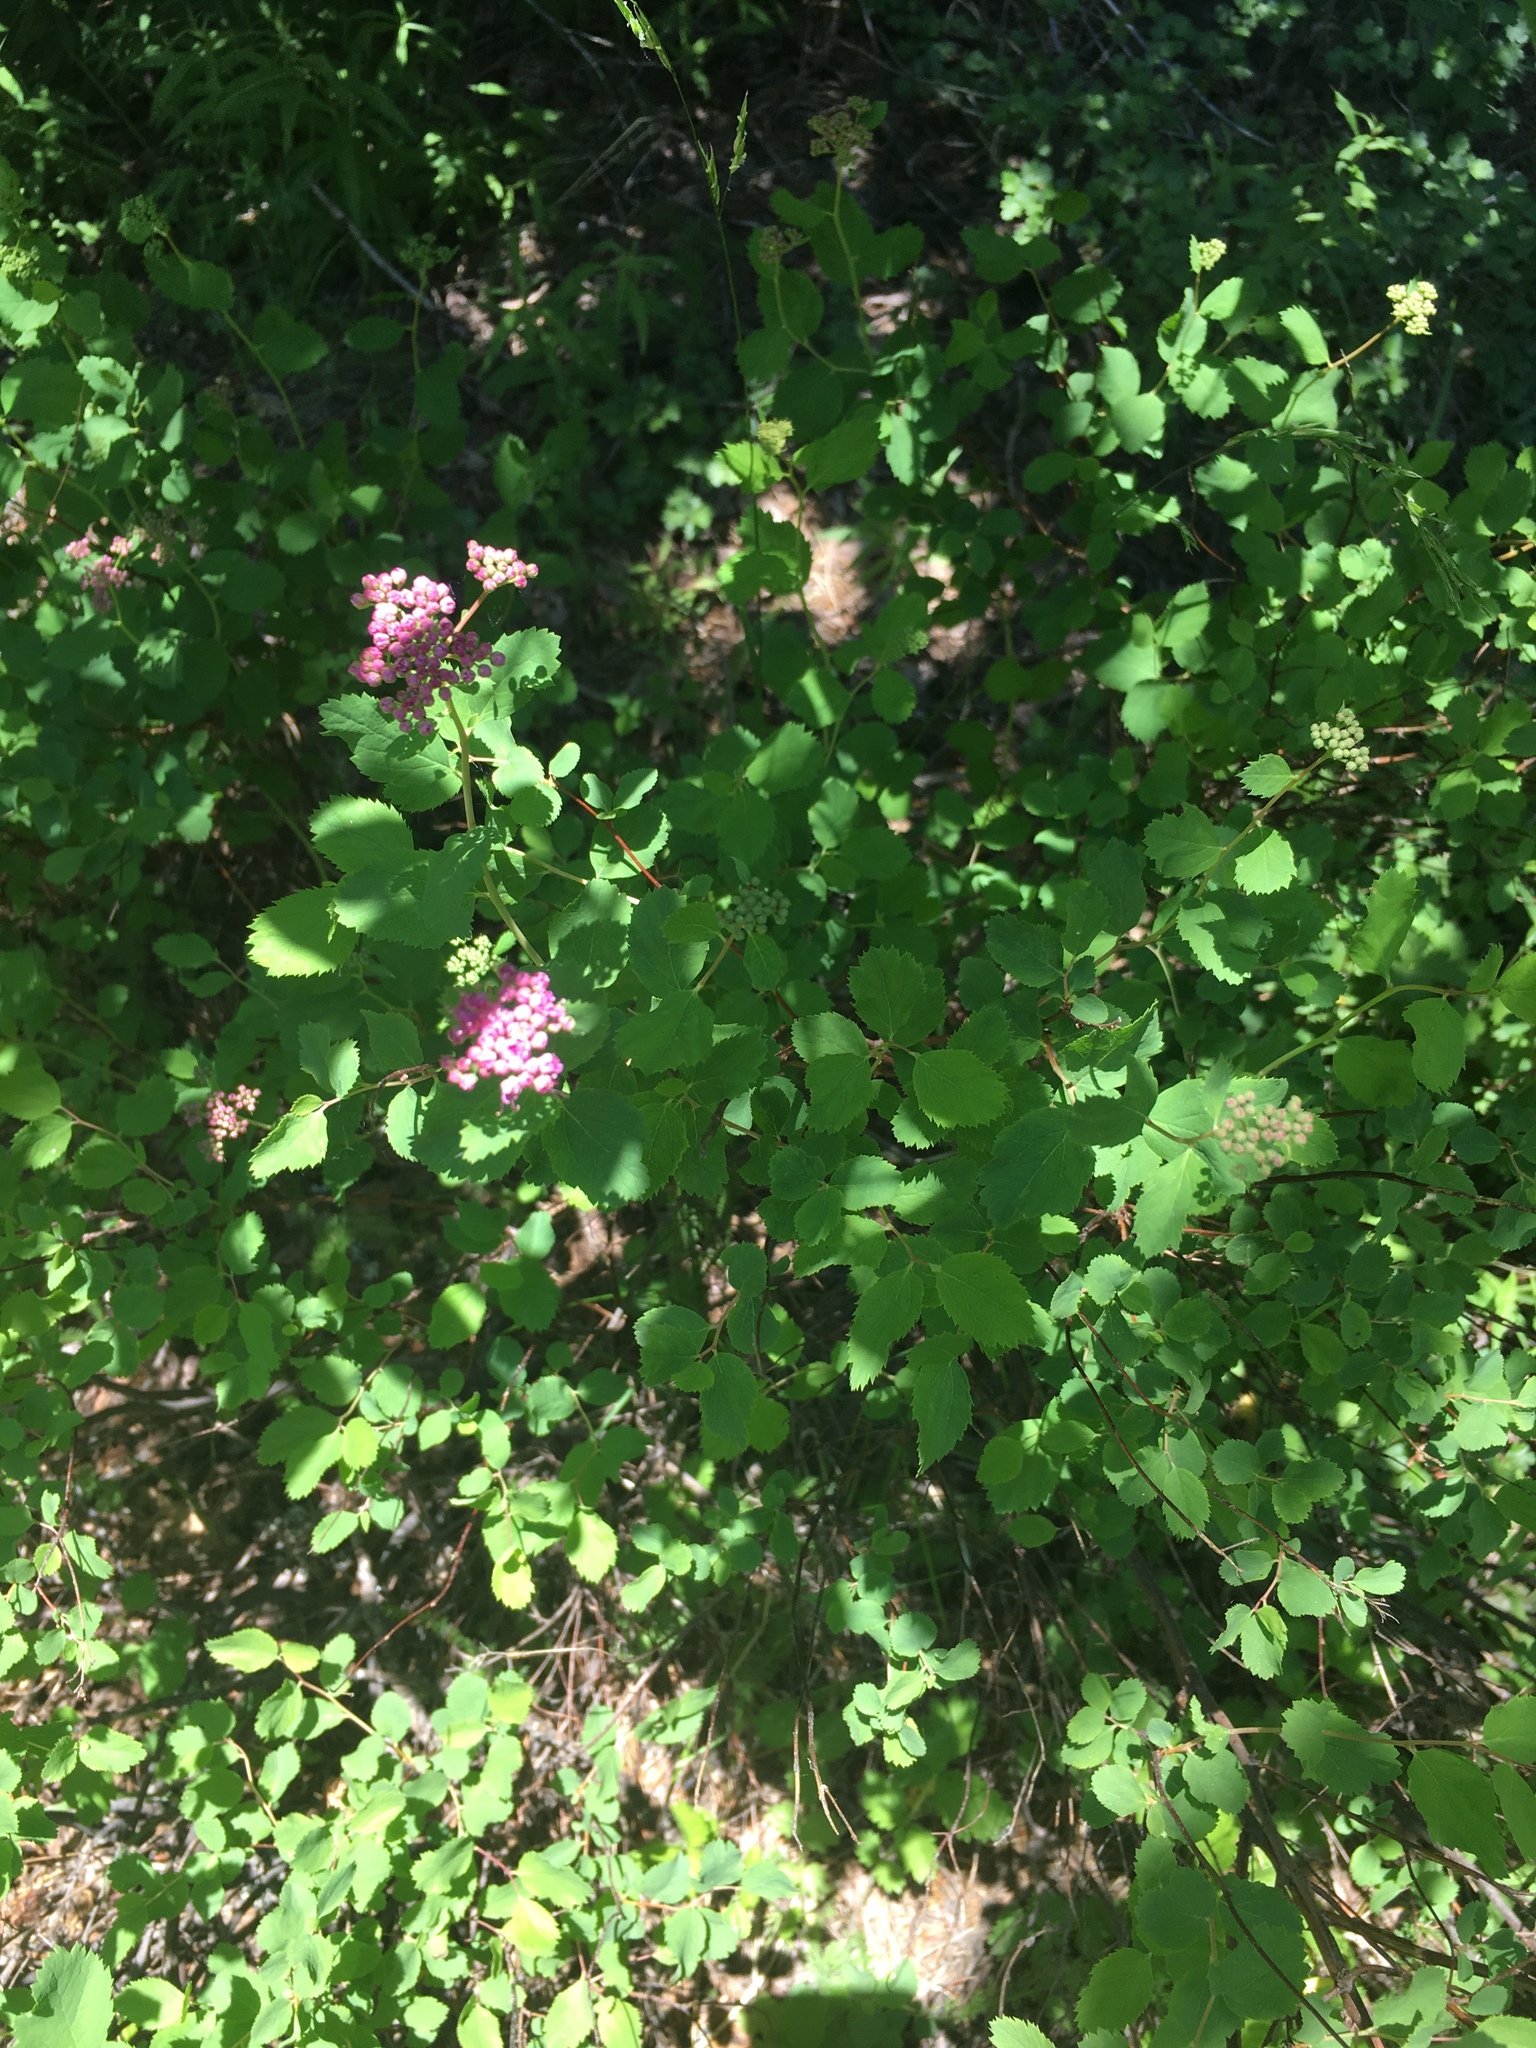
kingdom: Plantae
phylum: Tracheophyta
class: Magnoliopsida
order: Rosales
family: Rosaceae
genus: Spiraea
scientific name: Spiraea splendens
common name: Subalpine meadowsweet
